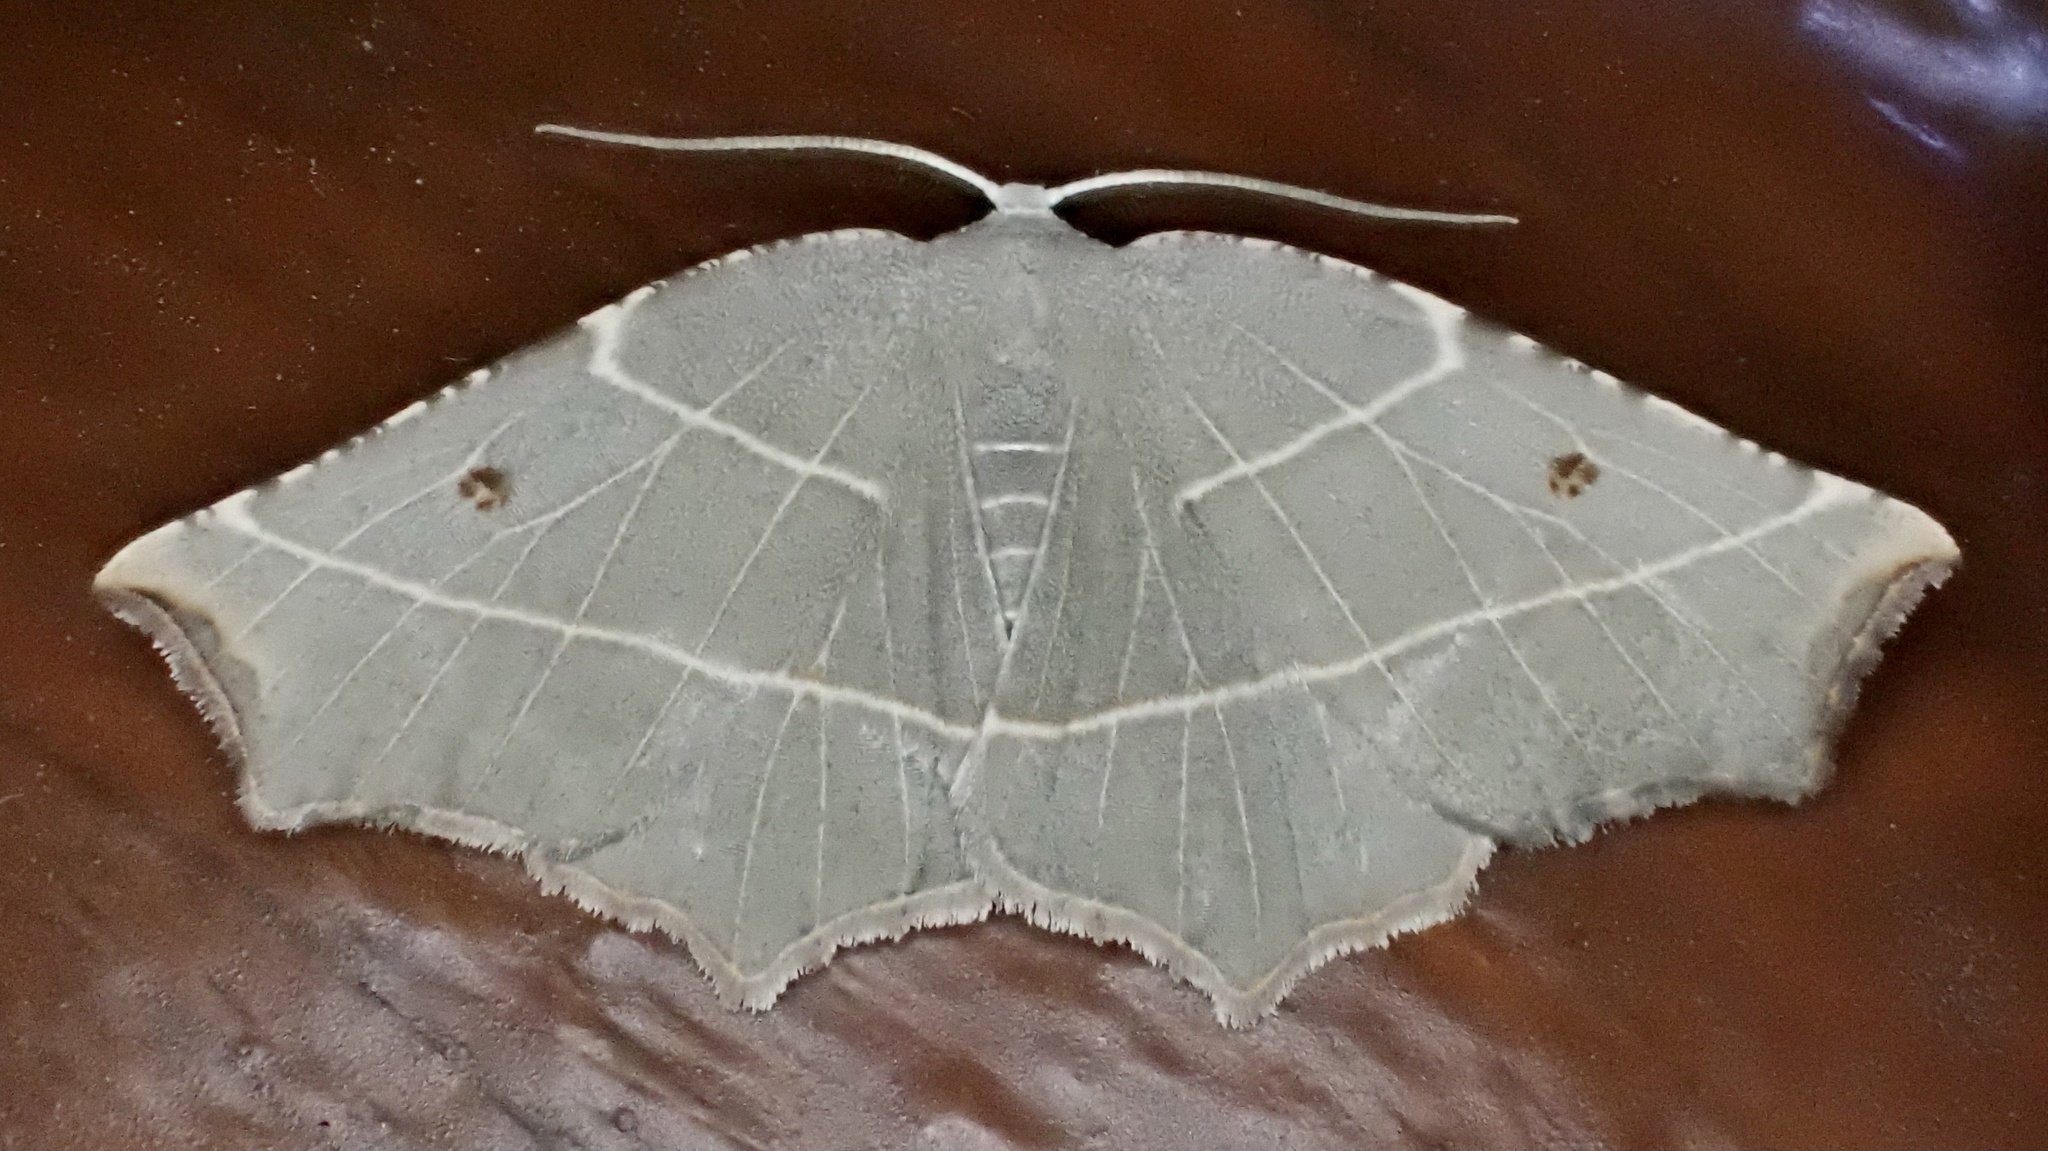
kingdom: Animalia
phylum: Arthropoda
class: Insecta
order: Lepidoptera
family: Geometridae
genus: Metanema
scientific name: Metanema inatomaria
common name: Pale metanema
